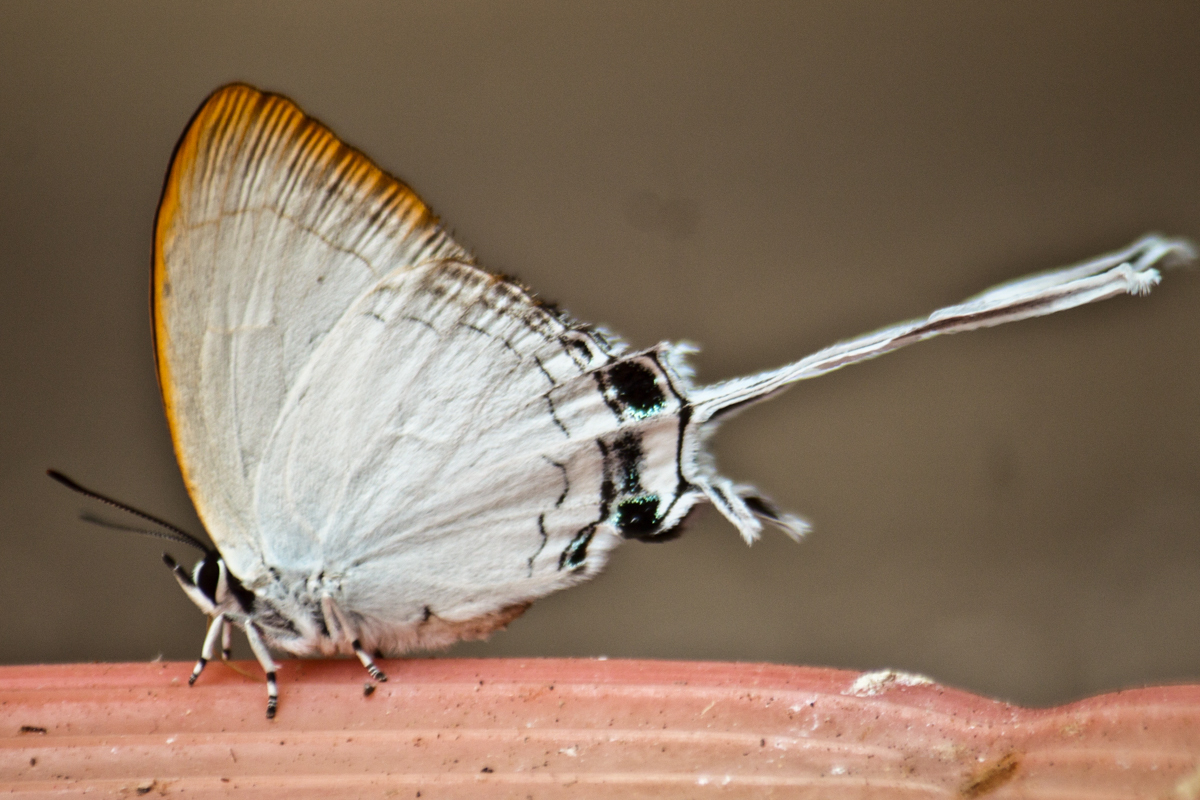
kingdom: Animalia
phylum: Arthropoda
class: Insecta
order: Lepidoptera
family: Lycaenidae
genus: Cheritra
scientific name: Cheritra freja
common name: Common imperial
